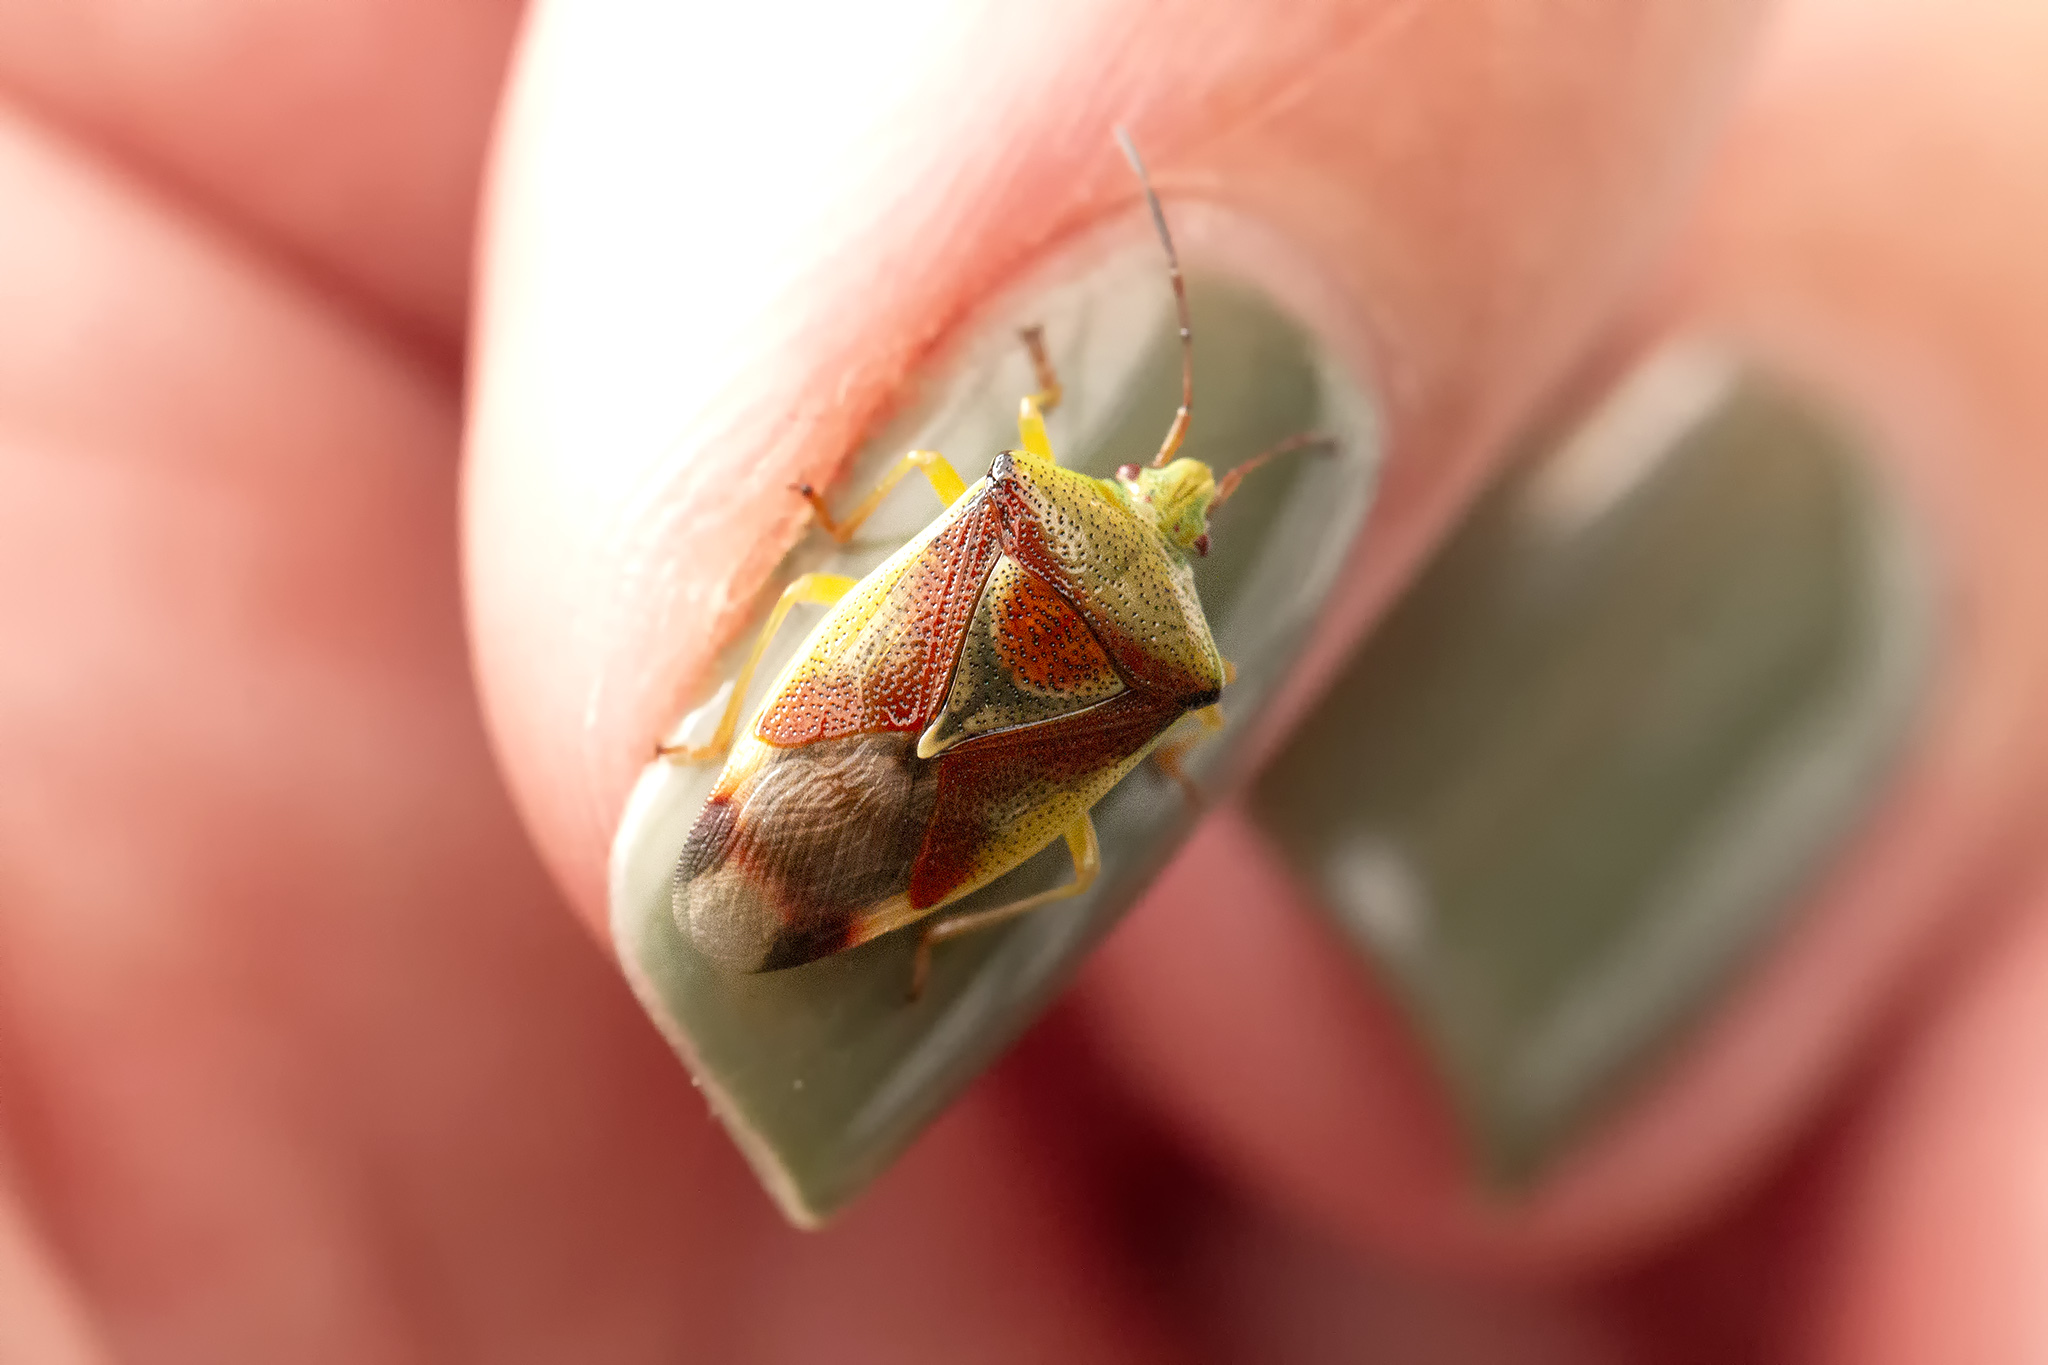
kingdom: Animalia
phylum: Arthropoda
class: Insecta
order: Hemiptera
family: Acanthosomatidae
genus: Elasmostethus
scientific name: Elasmostethus interstinctus
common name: Birch shieldbug
